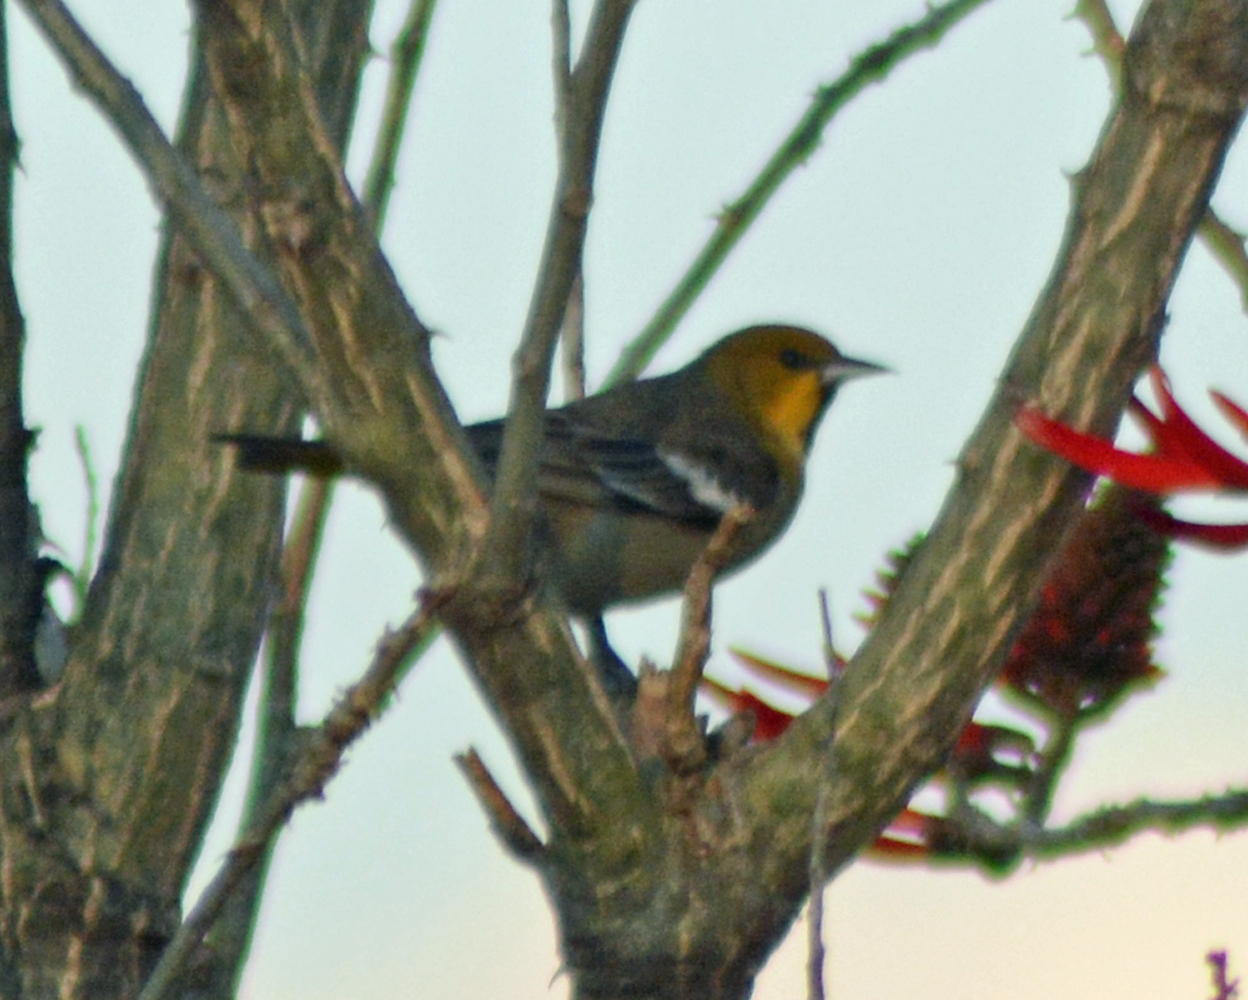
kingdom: Animalia
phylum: Chordata
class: Aves
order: Passeriformes
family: Icteridae
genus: Icterus
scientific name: Icterus abeillei
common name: Black-backed oriole
